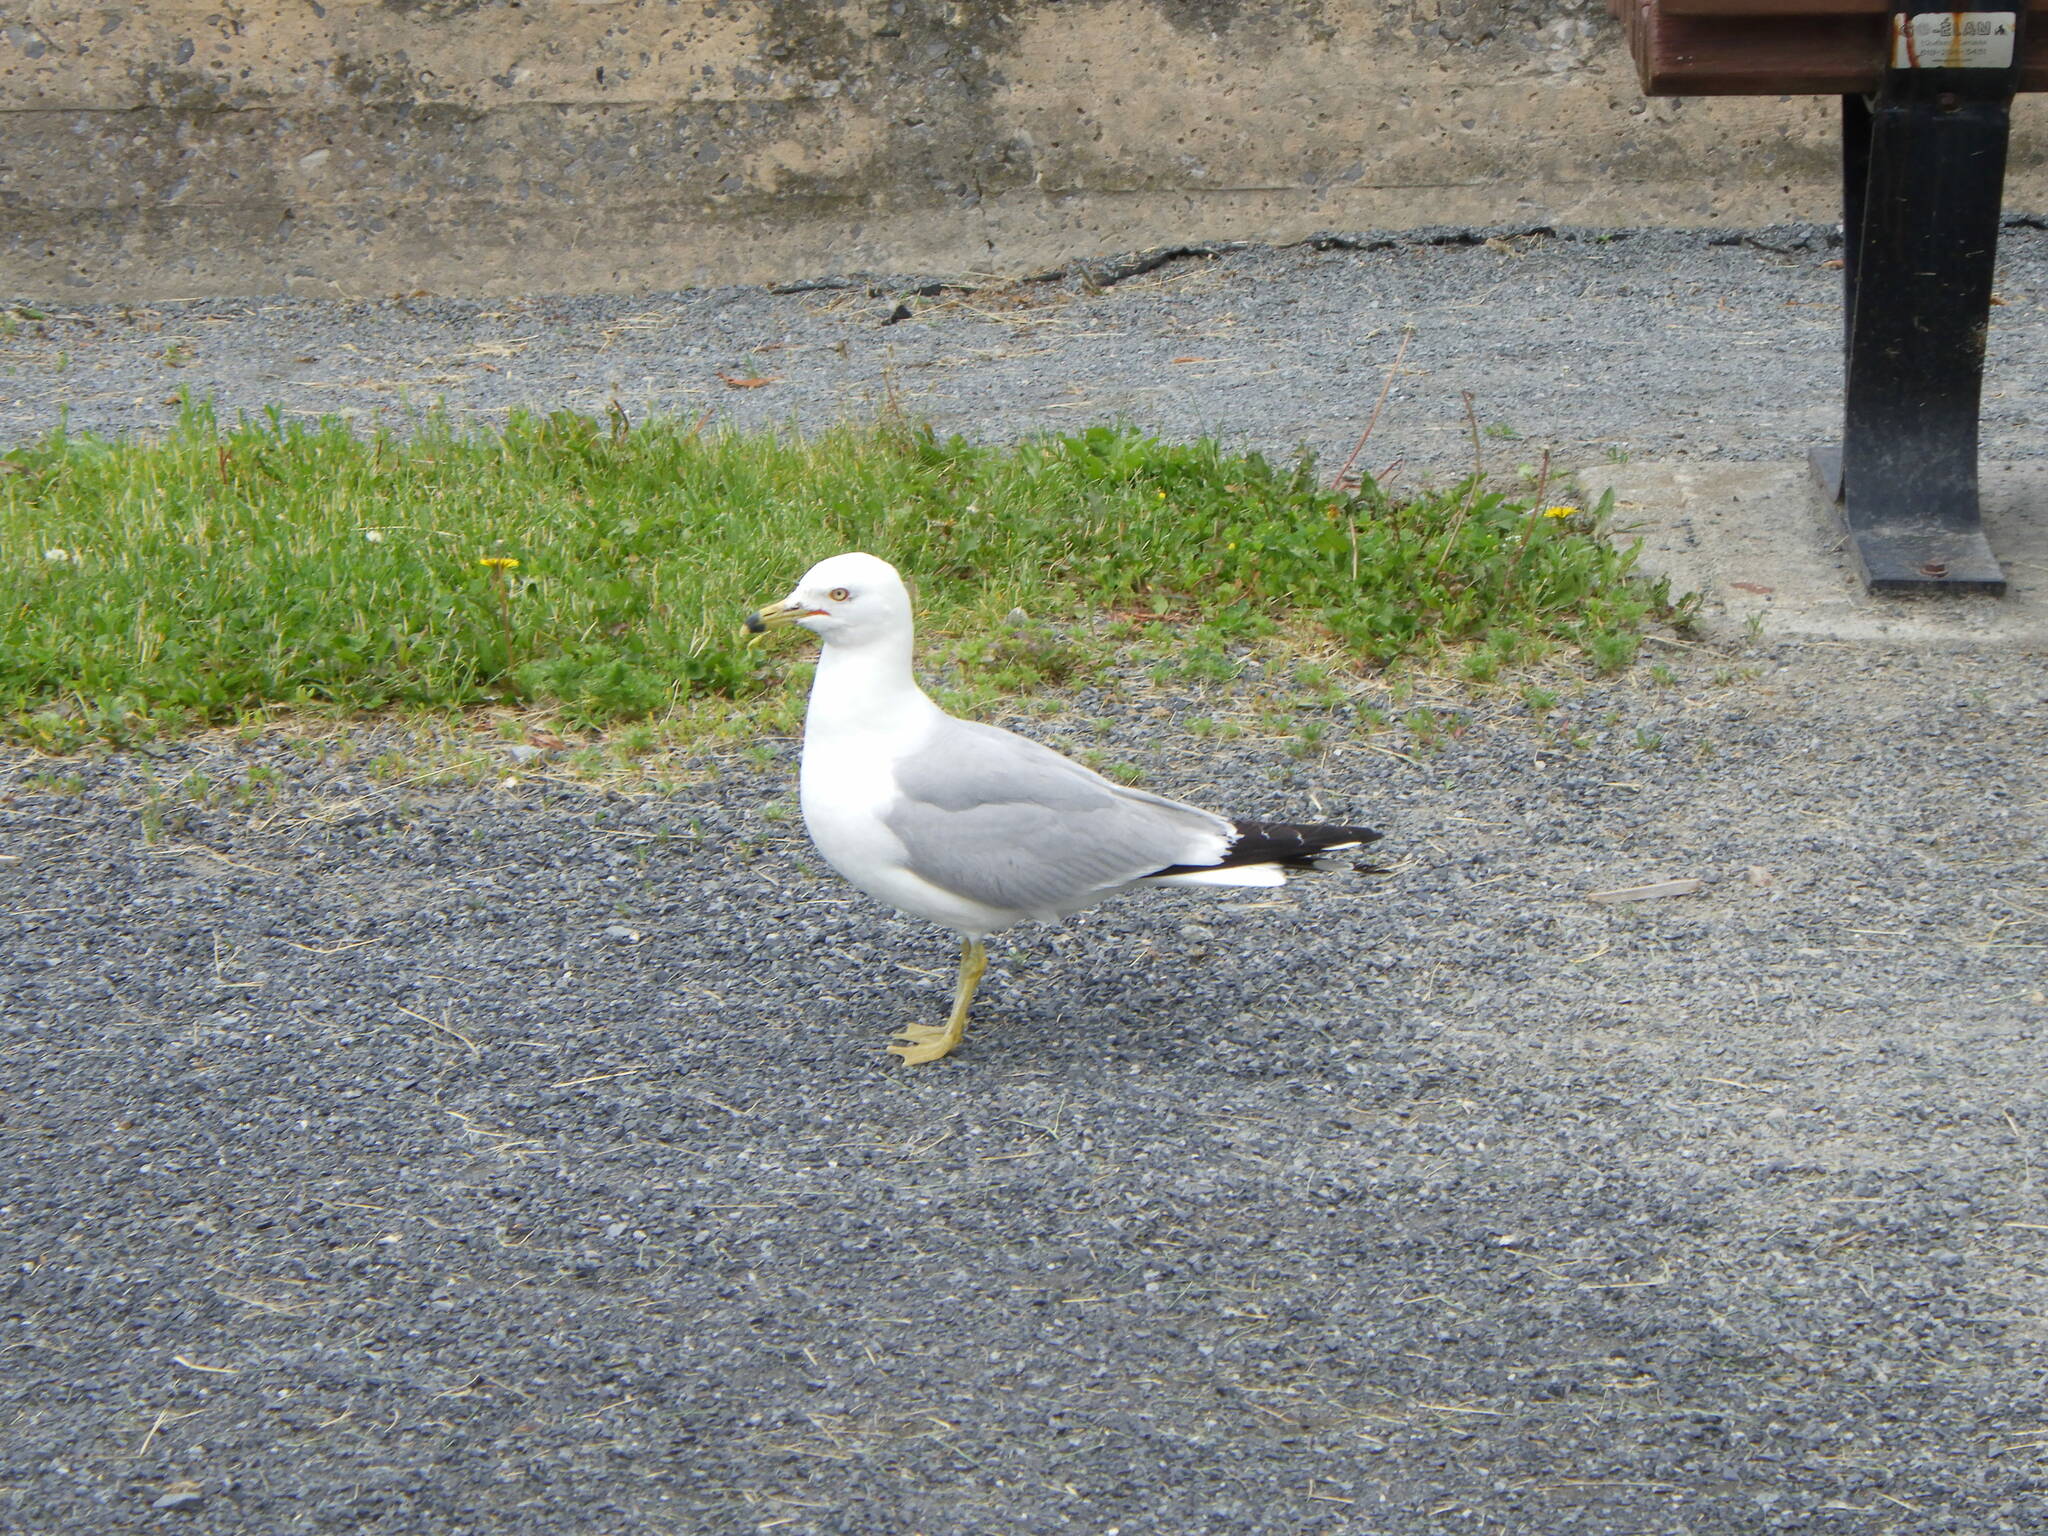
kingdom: Animalia
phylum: Chordata
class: Aves
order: Charadriiformes
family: Laridae
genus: Larus
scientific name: Larus delawarensis
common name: Ring-billed gull
